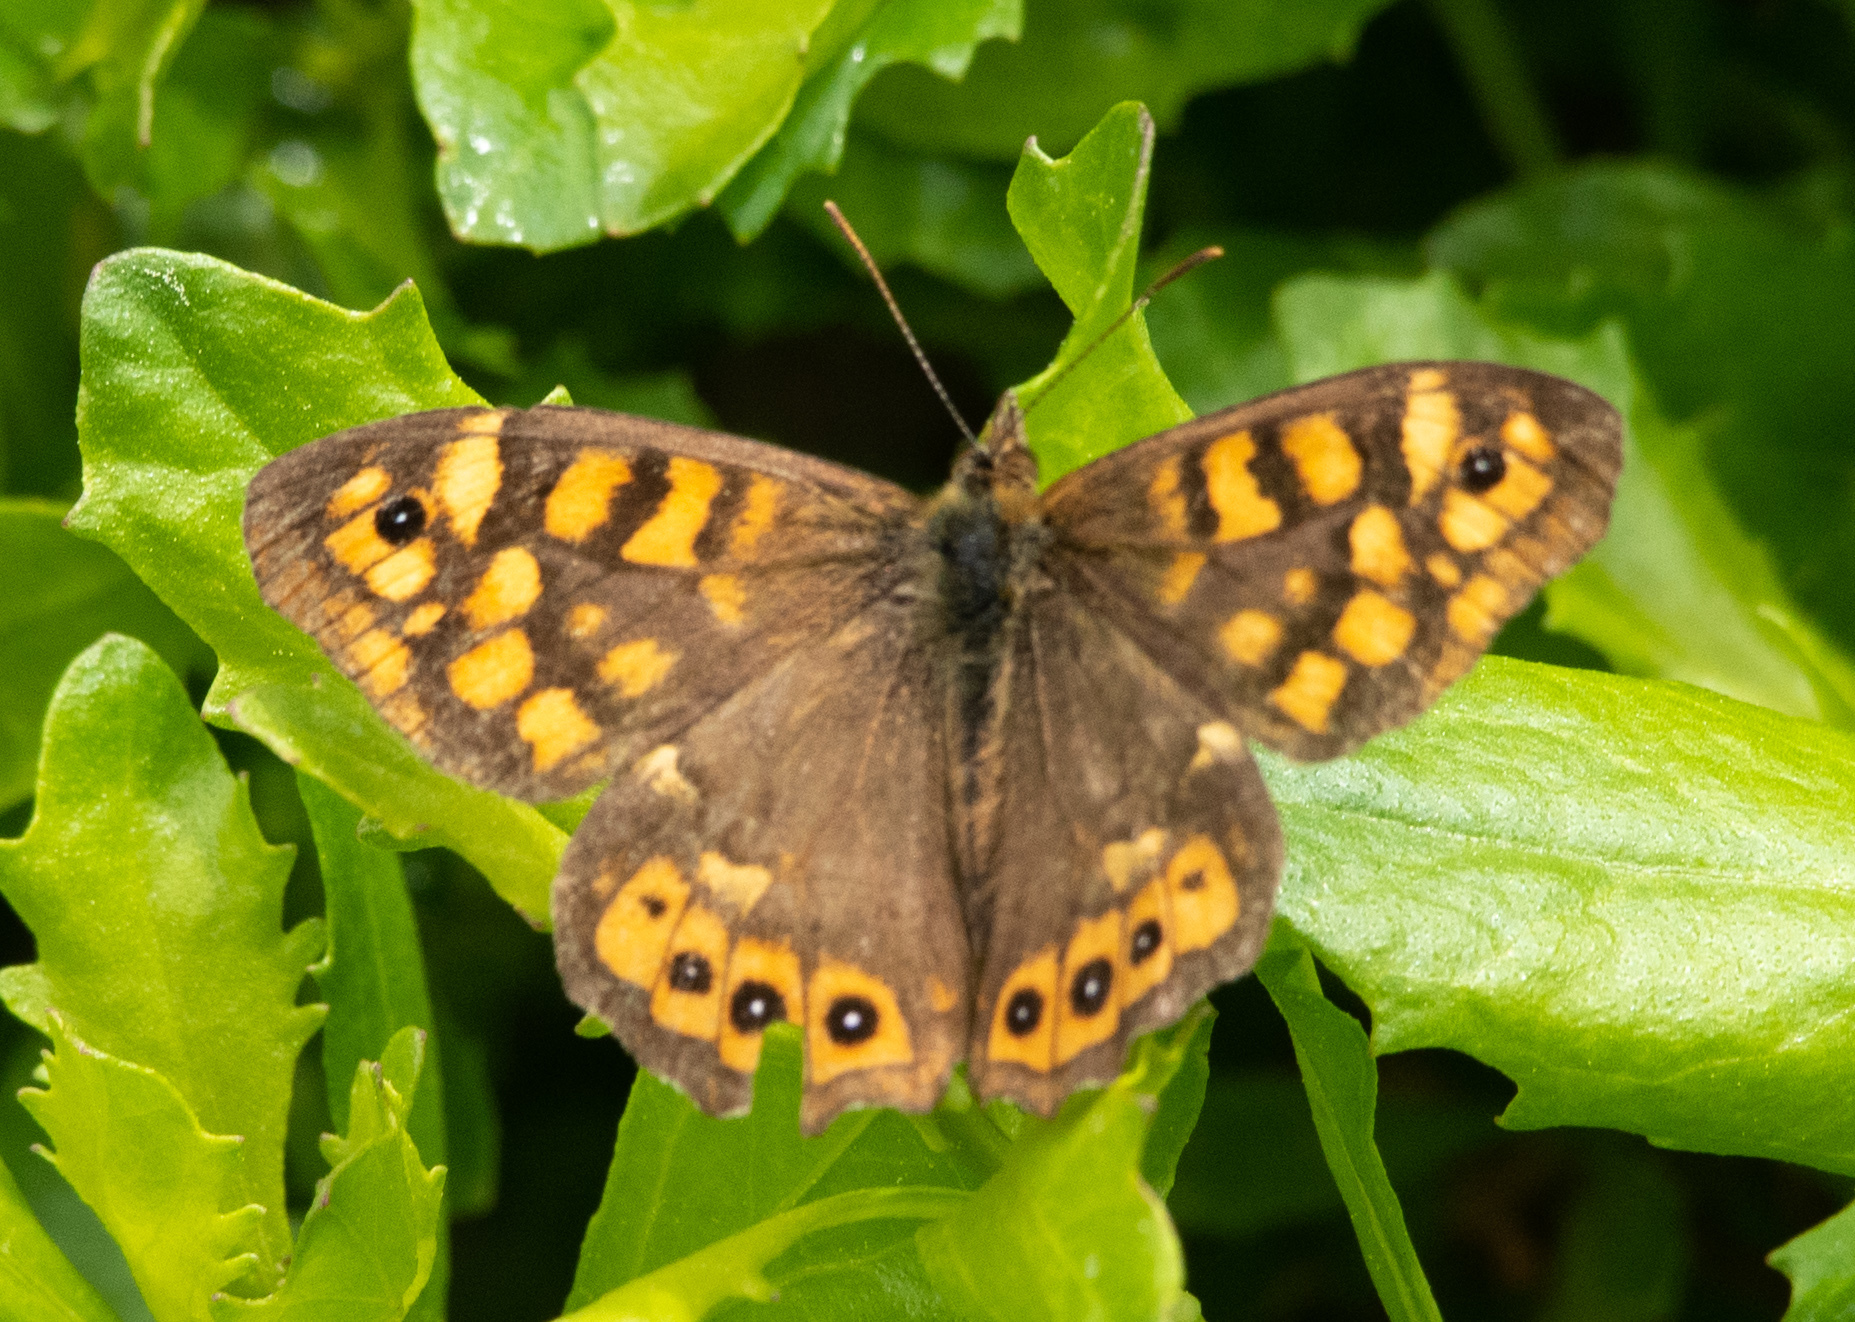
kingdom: Animalia
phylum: Arthropoda
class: Insecta
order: Lepidoptera
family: Nymphalidae
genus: Pararge
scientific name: Pararge aegeria
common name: Speckled wood
